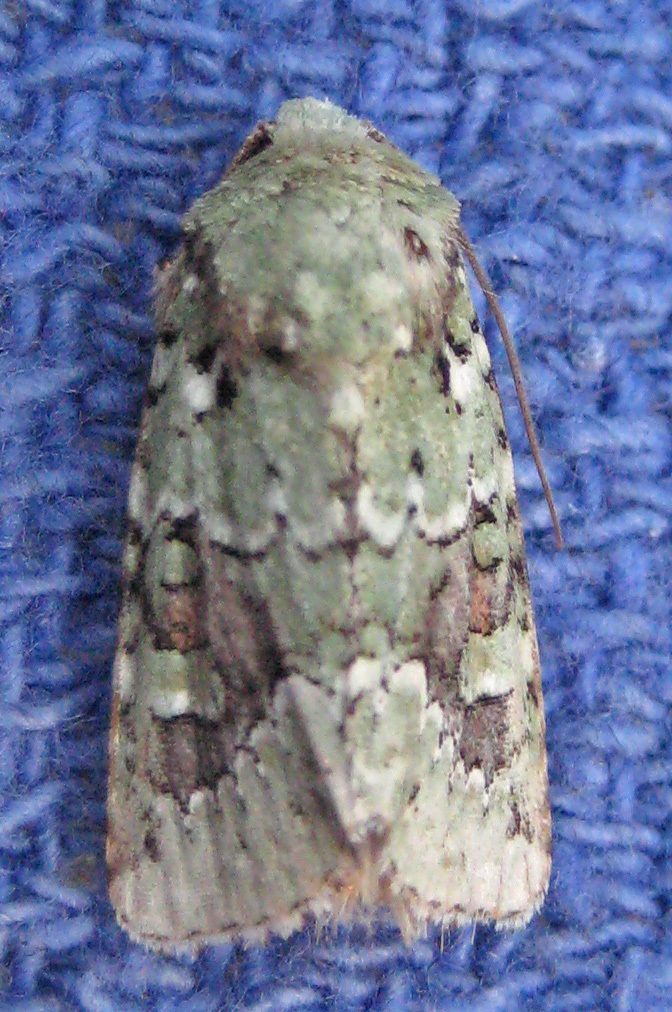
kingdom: Animalia
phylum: Arthropoda
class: Insecta
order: Lepidoptera
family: Noctuidae
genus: Lacinipolia
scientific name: Lacinipolia laudabilis
